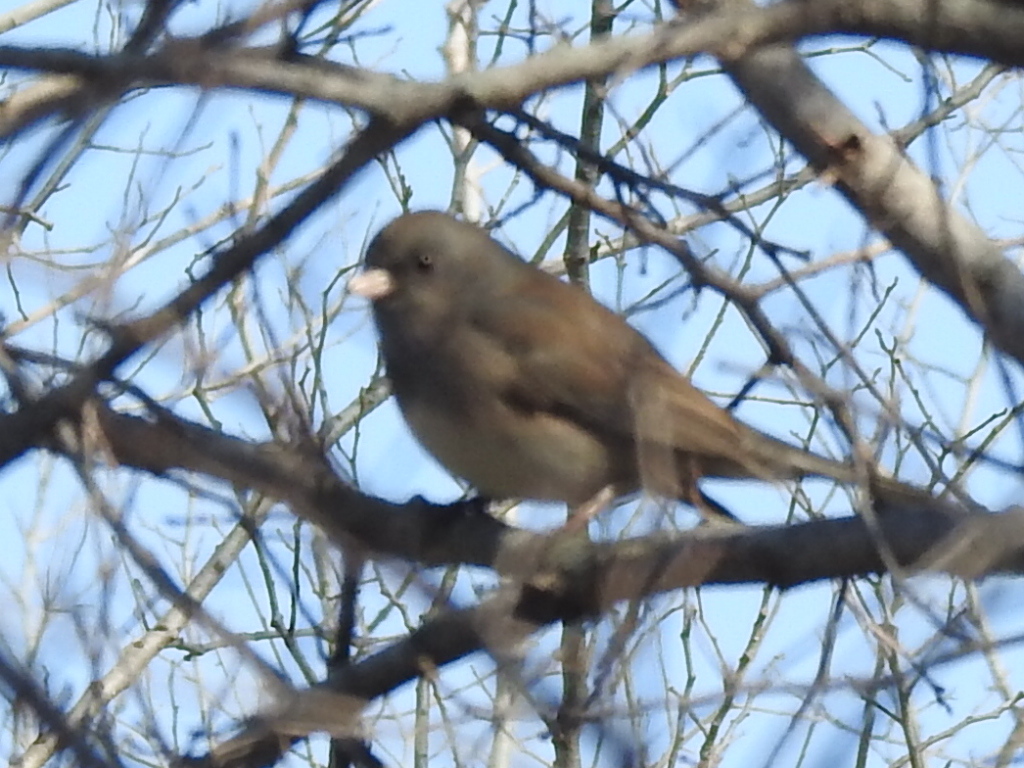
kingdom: Animalia
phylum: Chordata
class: Aves
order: Passeriformes
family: Passerellidae
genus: Junco
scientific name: Junco hyemalis
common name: Dark-eyed junco
